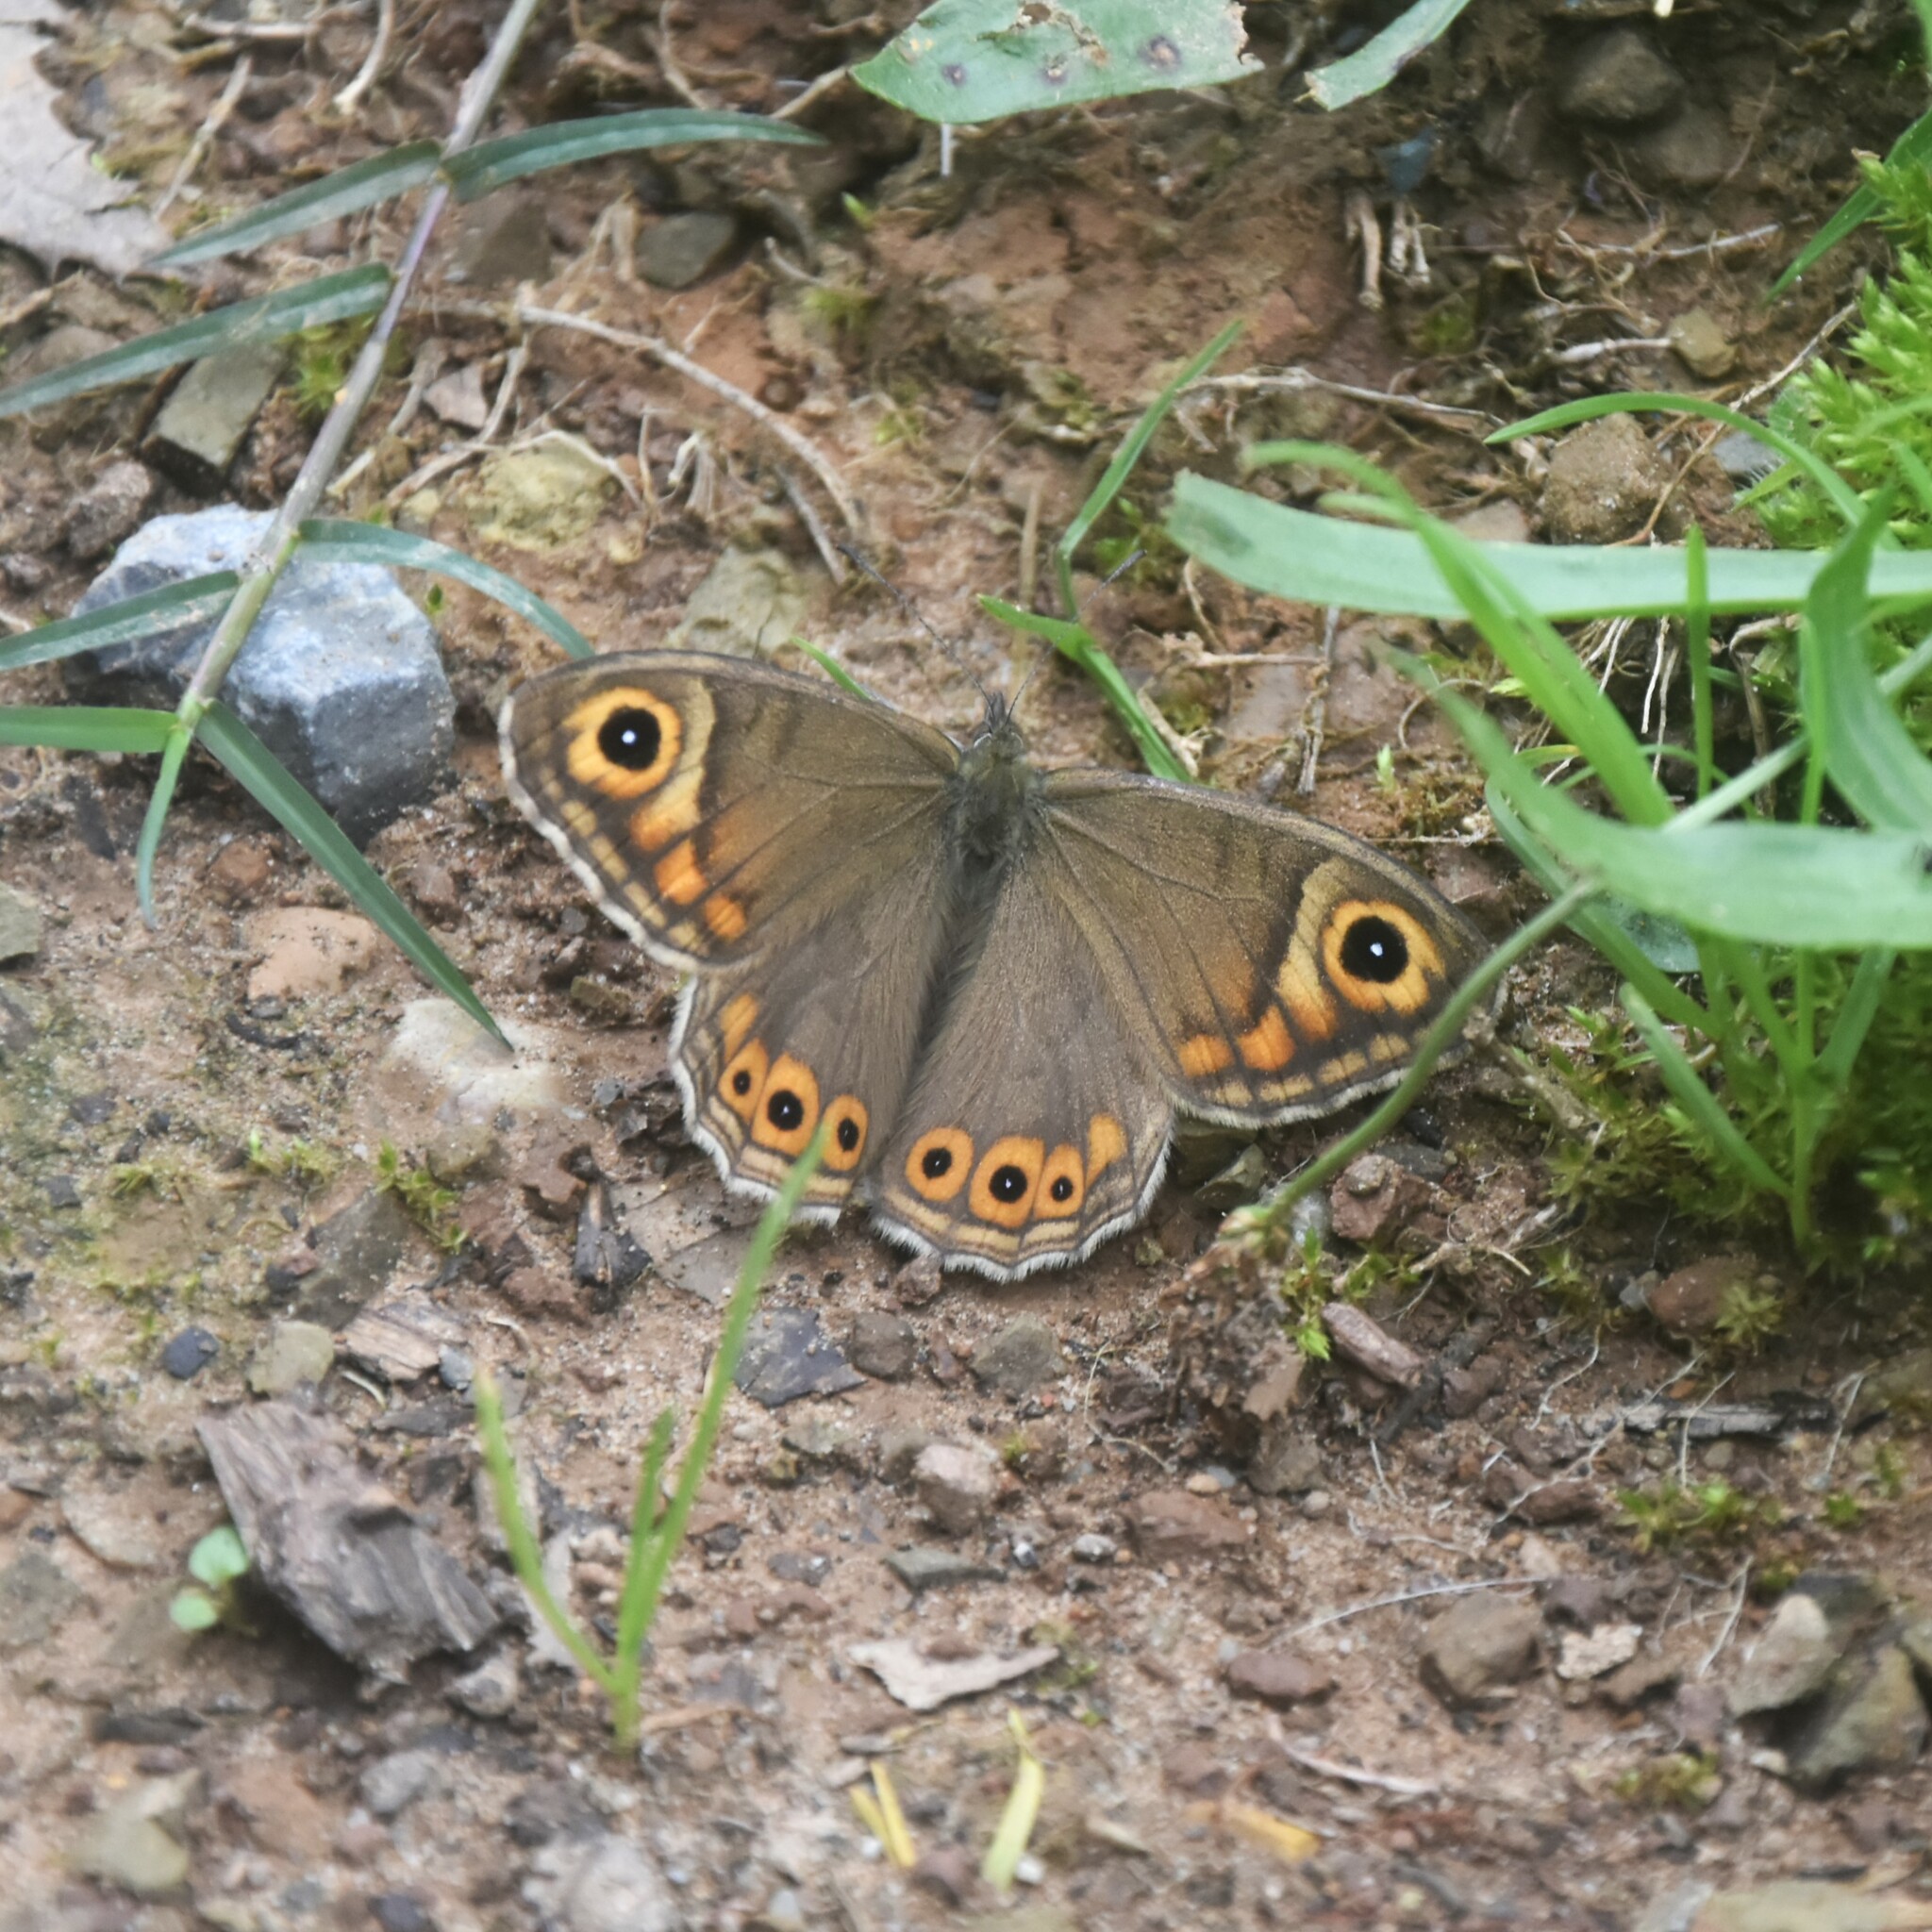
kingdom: Animalia
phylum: Arthropoda
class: Insecta
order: Lepidoptera
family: Nymphalidae
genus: Pararge
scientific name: Pararge Lasiommata schakra
